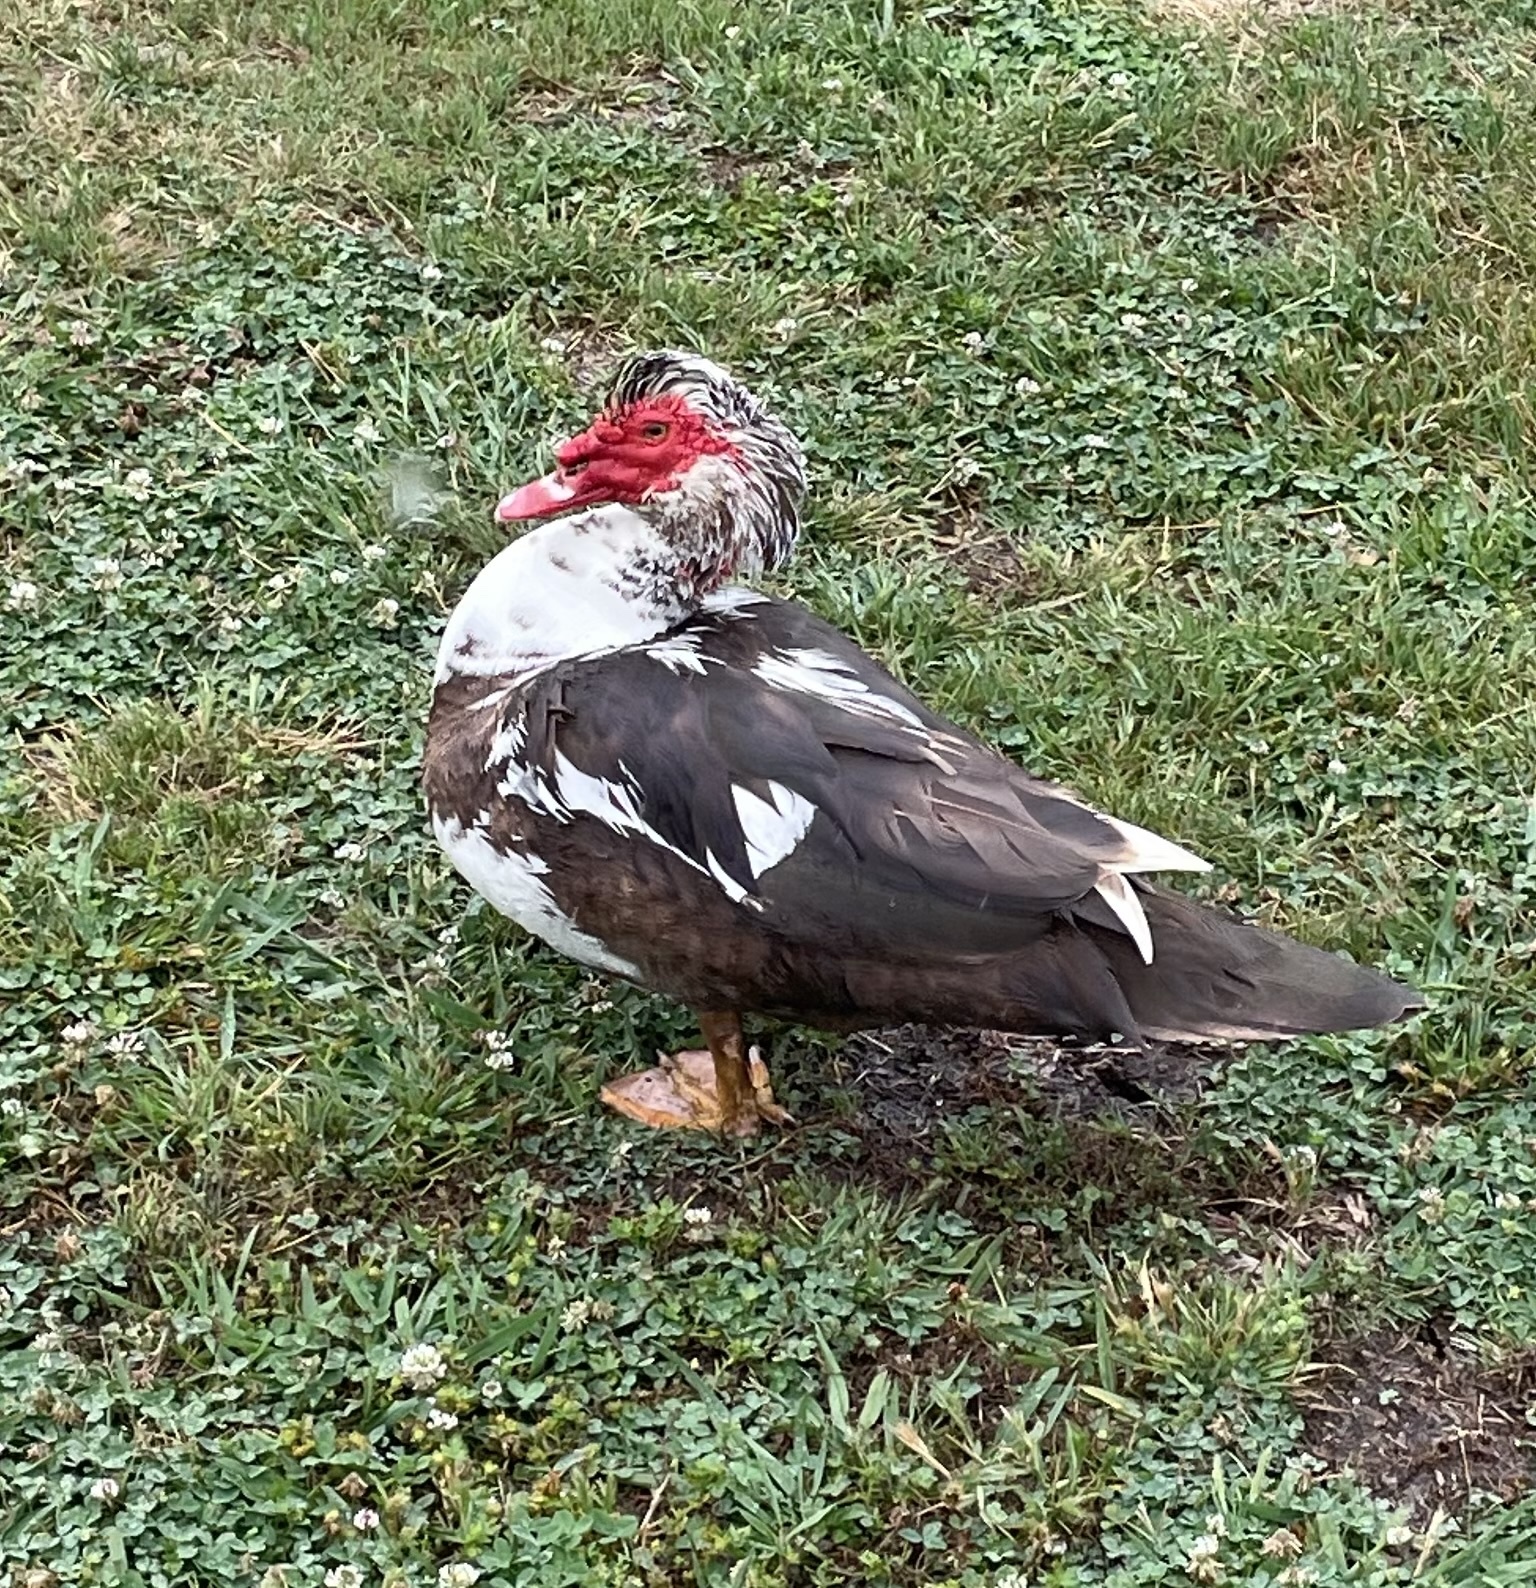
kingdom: Animalia
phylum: Chordata
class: Aves
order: Anseriformes
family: Anatidae
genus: Cairina
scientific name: Cairina moschata
